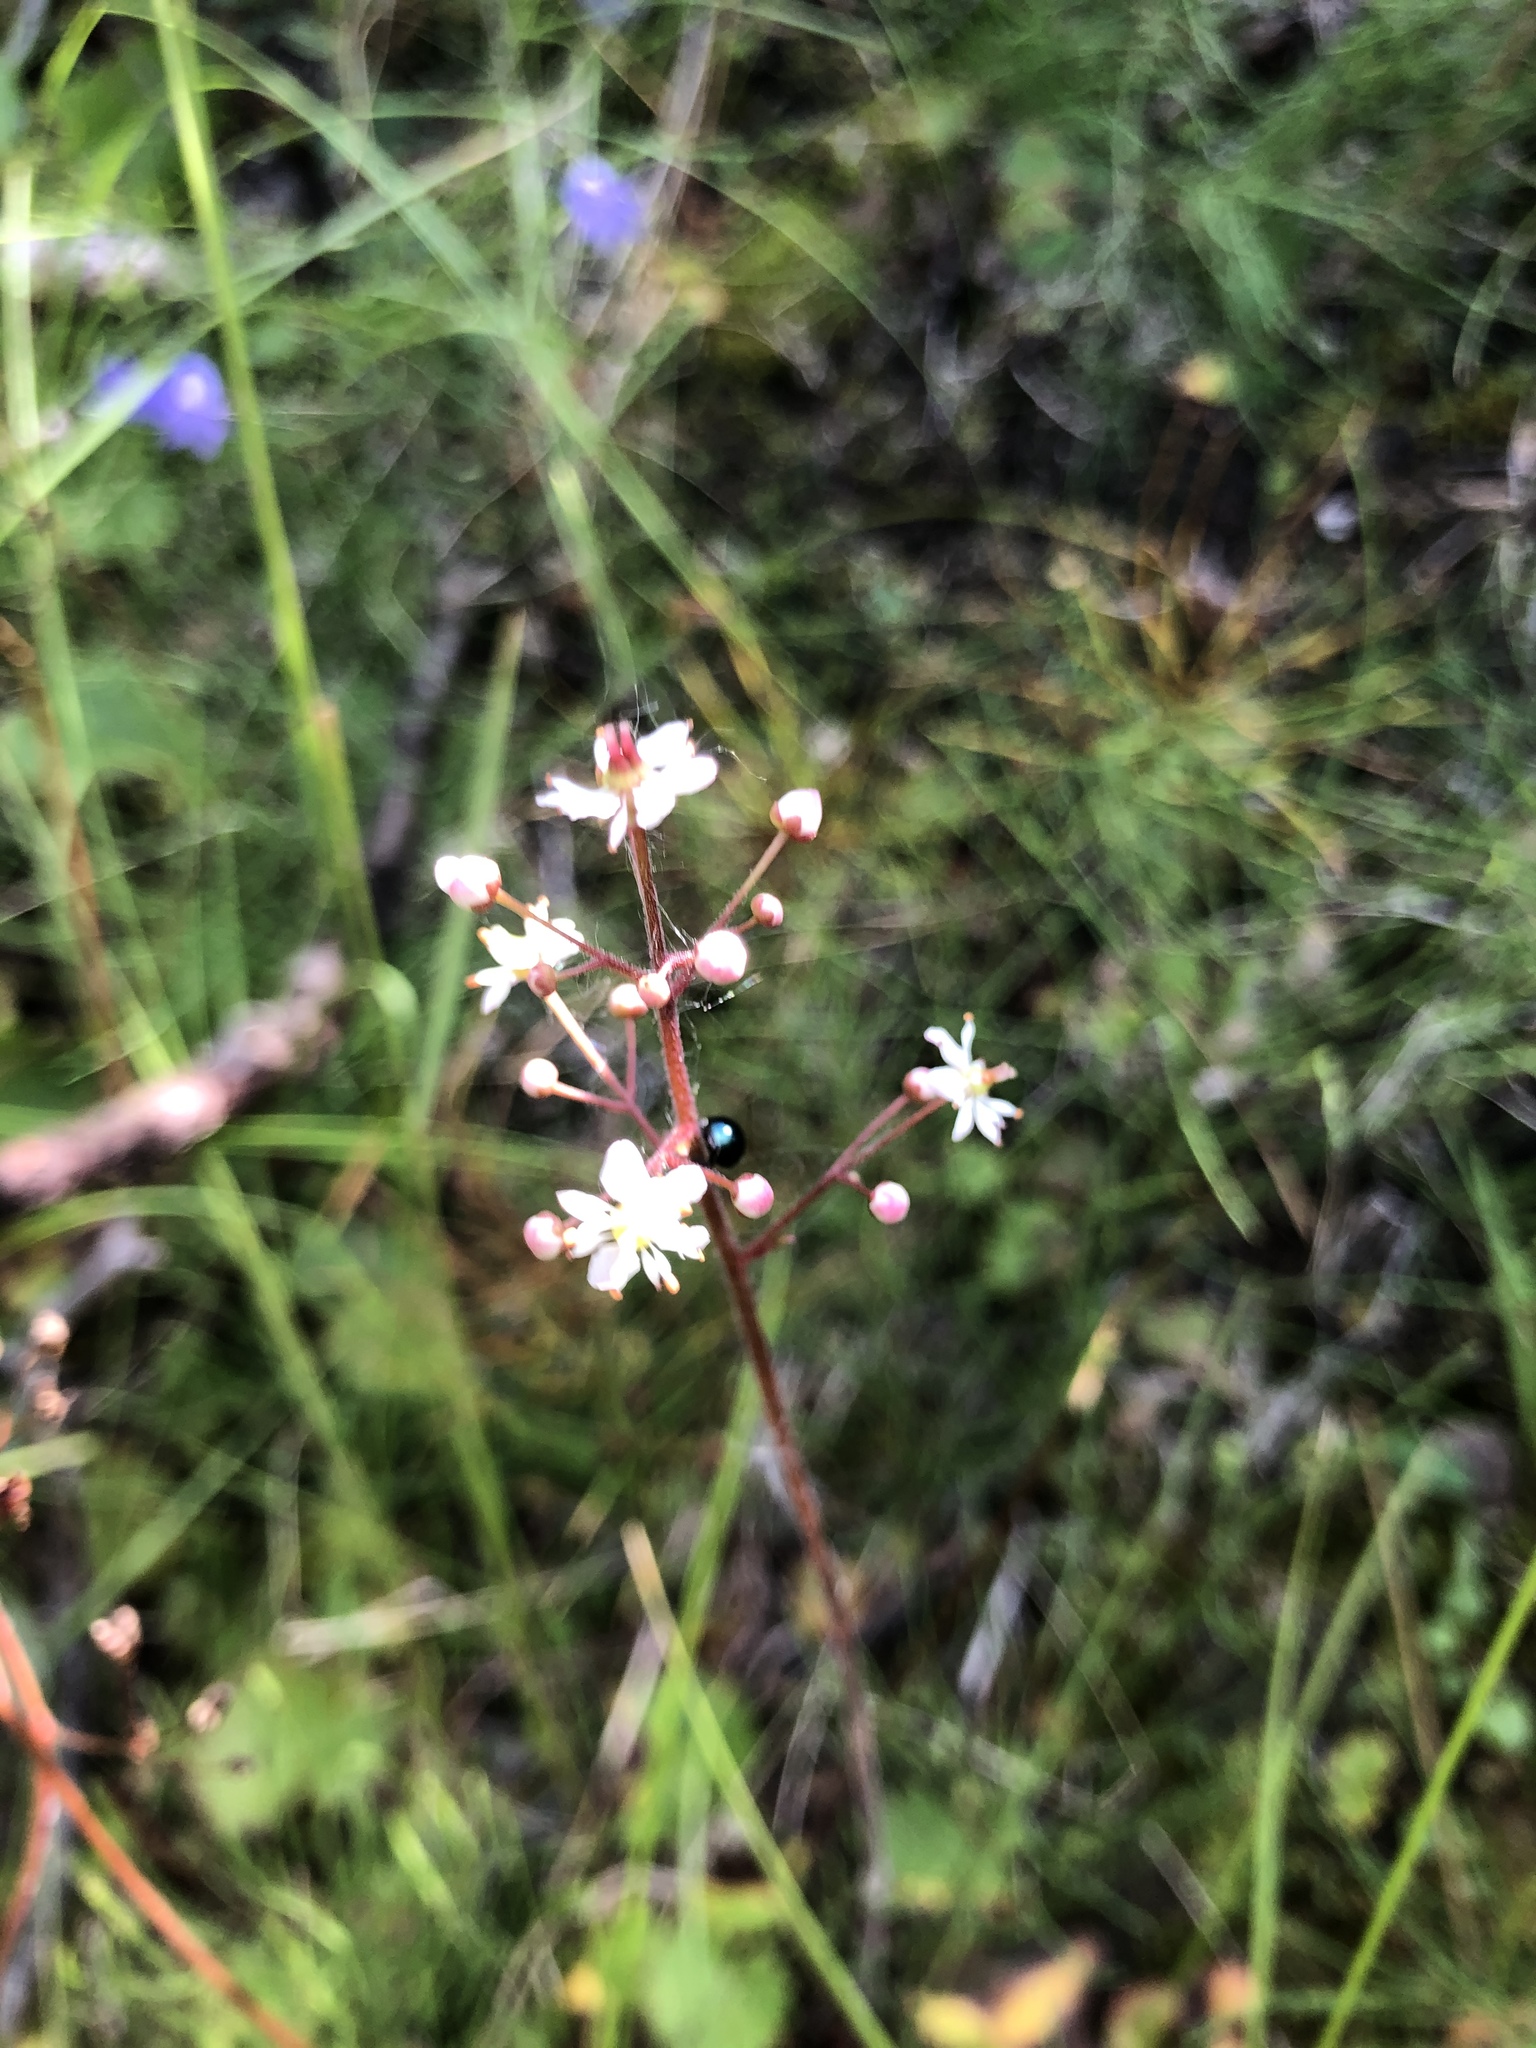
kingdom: Plantae
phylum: Tracheophyta
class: Magnoliopsida
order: Saxifragales
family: Saxifragaceae
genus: Micranthes
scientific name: Micranthes nelsoniana
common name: Nelson's saxifrage
